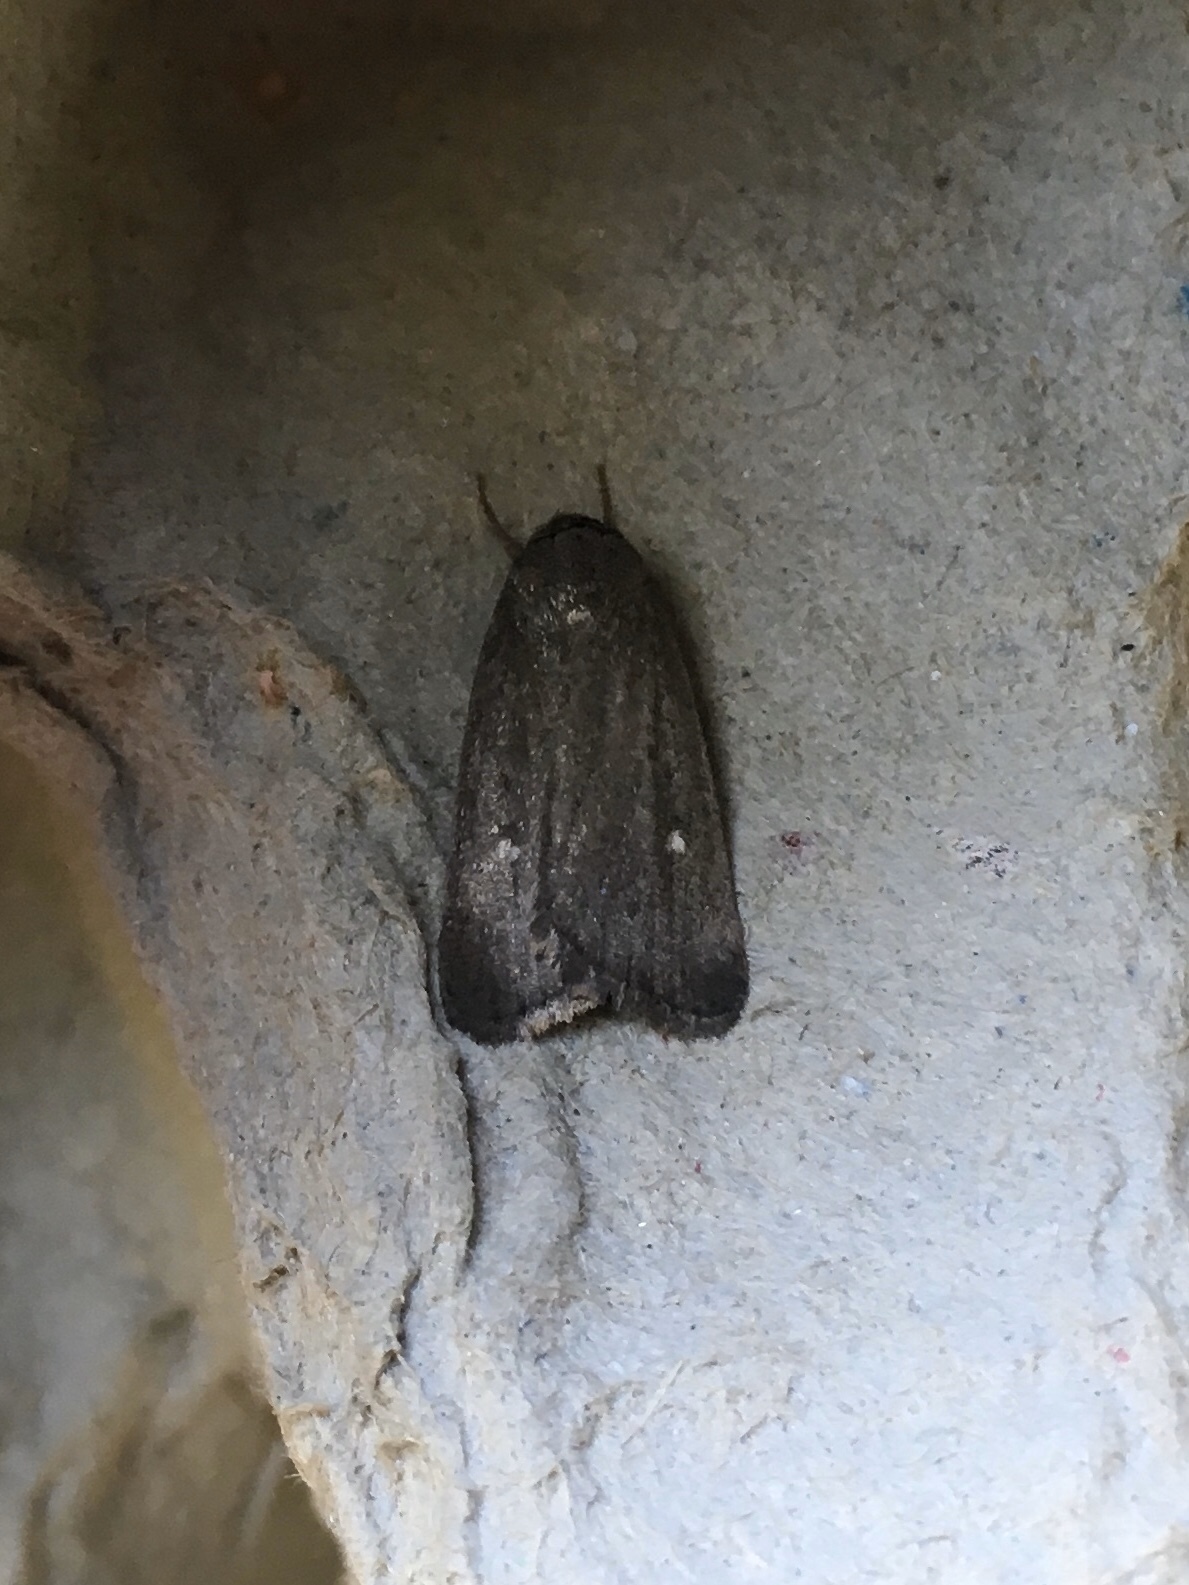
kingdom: Animalia
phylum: Arthropoda
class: Insecta
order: Lepidoptera
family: Noctuidae
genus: Proxenus
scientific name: Proxenus miranda
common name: Miranda moth
